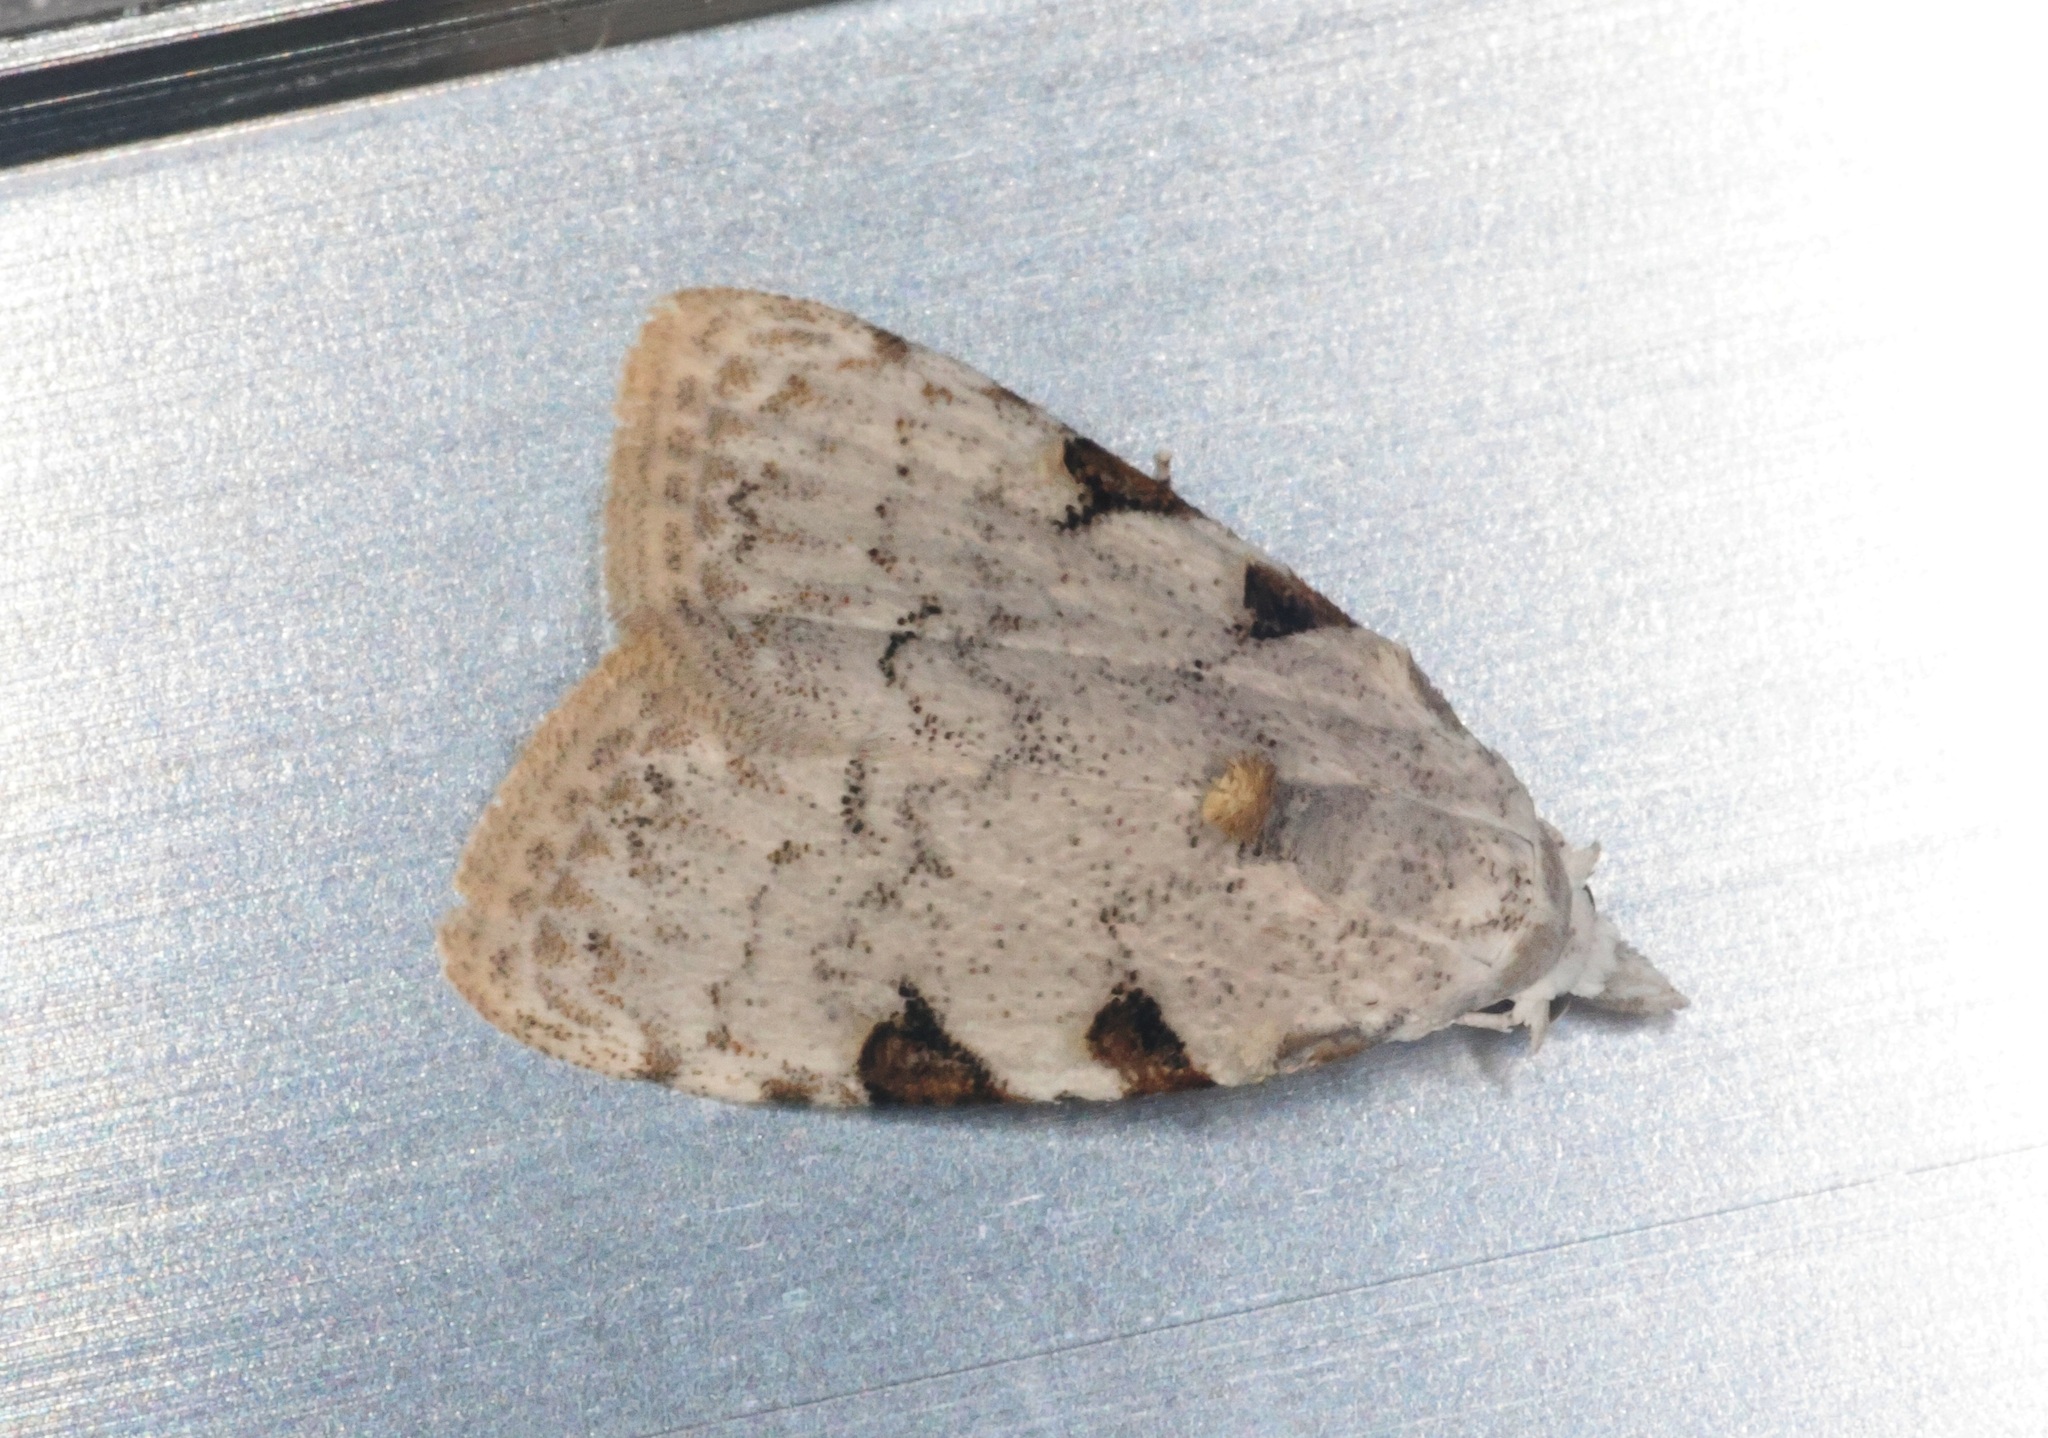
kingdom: Animalia
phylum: Arthropoda
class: Insecta
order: Lepidoptera
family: Nolidae
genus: Nola
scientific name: Nola pascua
